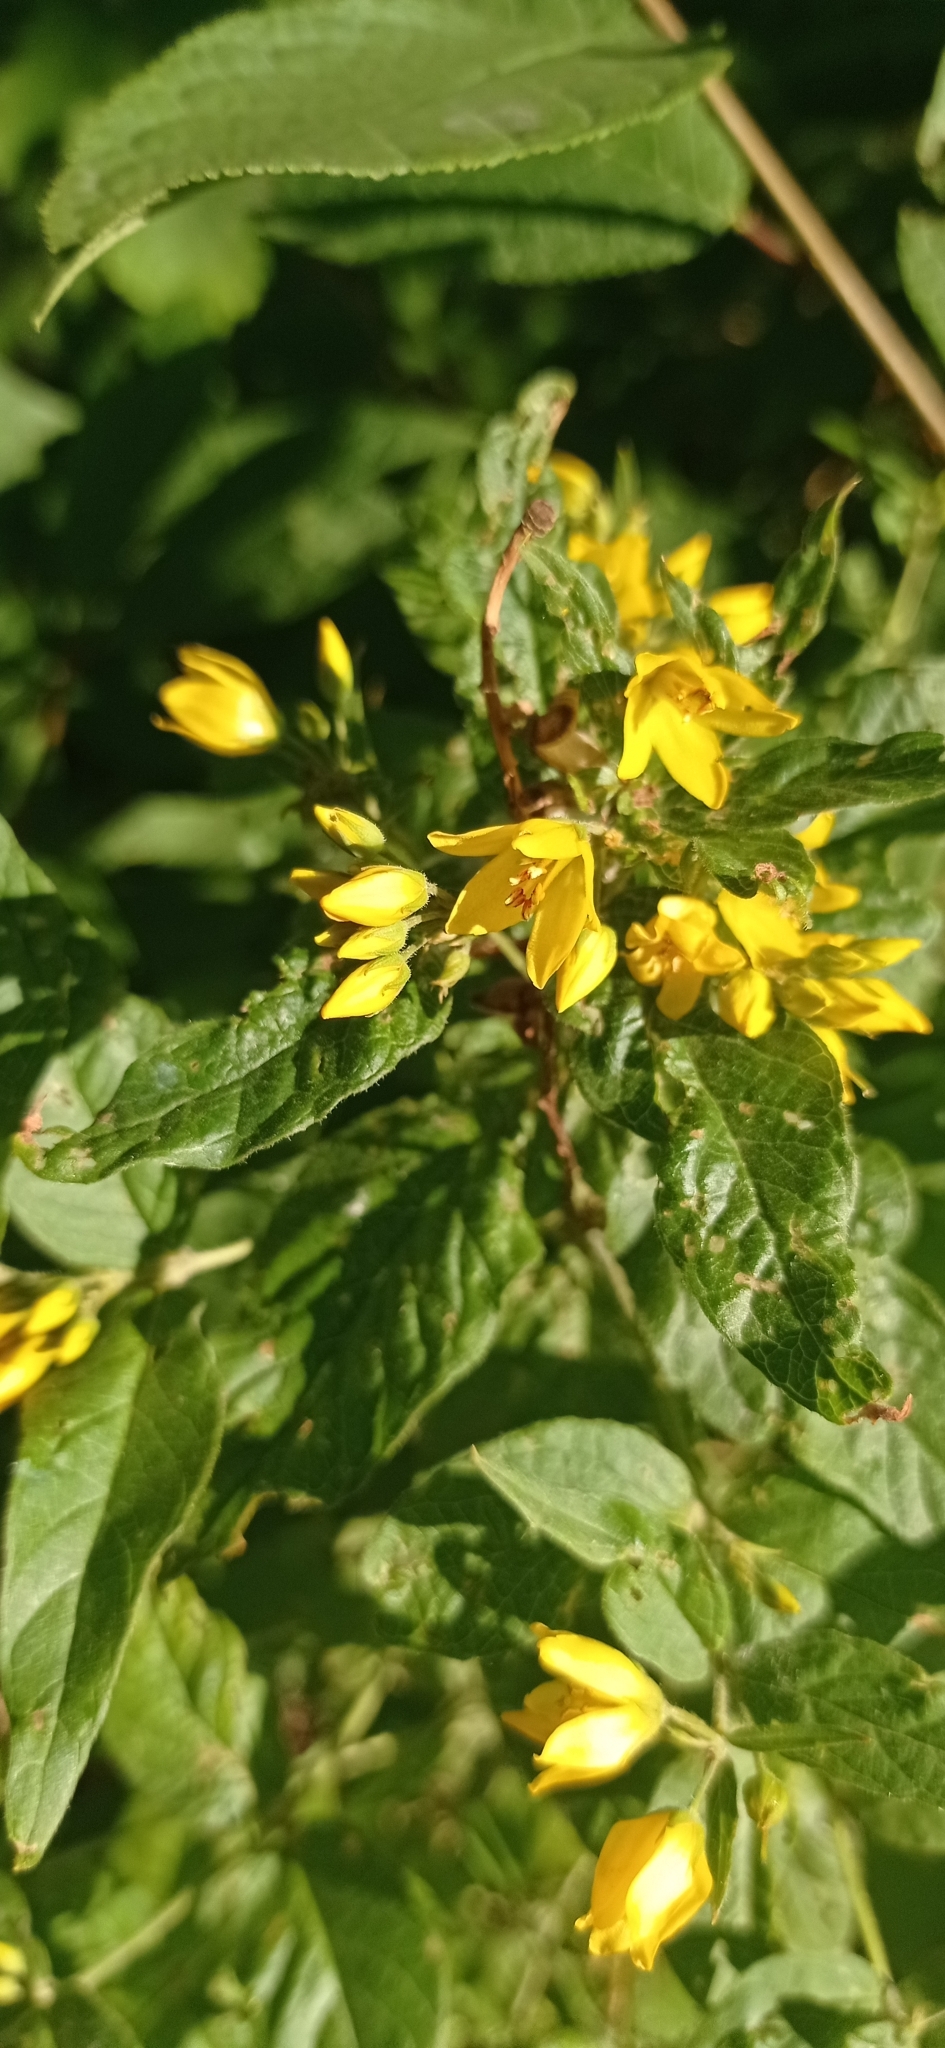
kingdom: Plantae
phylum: Tracheophyta
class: Magnoliopsida
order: Ericales
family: Primulaceae
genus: Lysimachia
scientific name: Lysimachia vulgaris
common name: Yellow loosestrife
